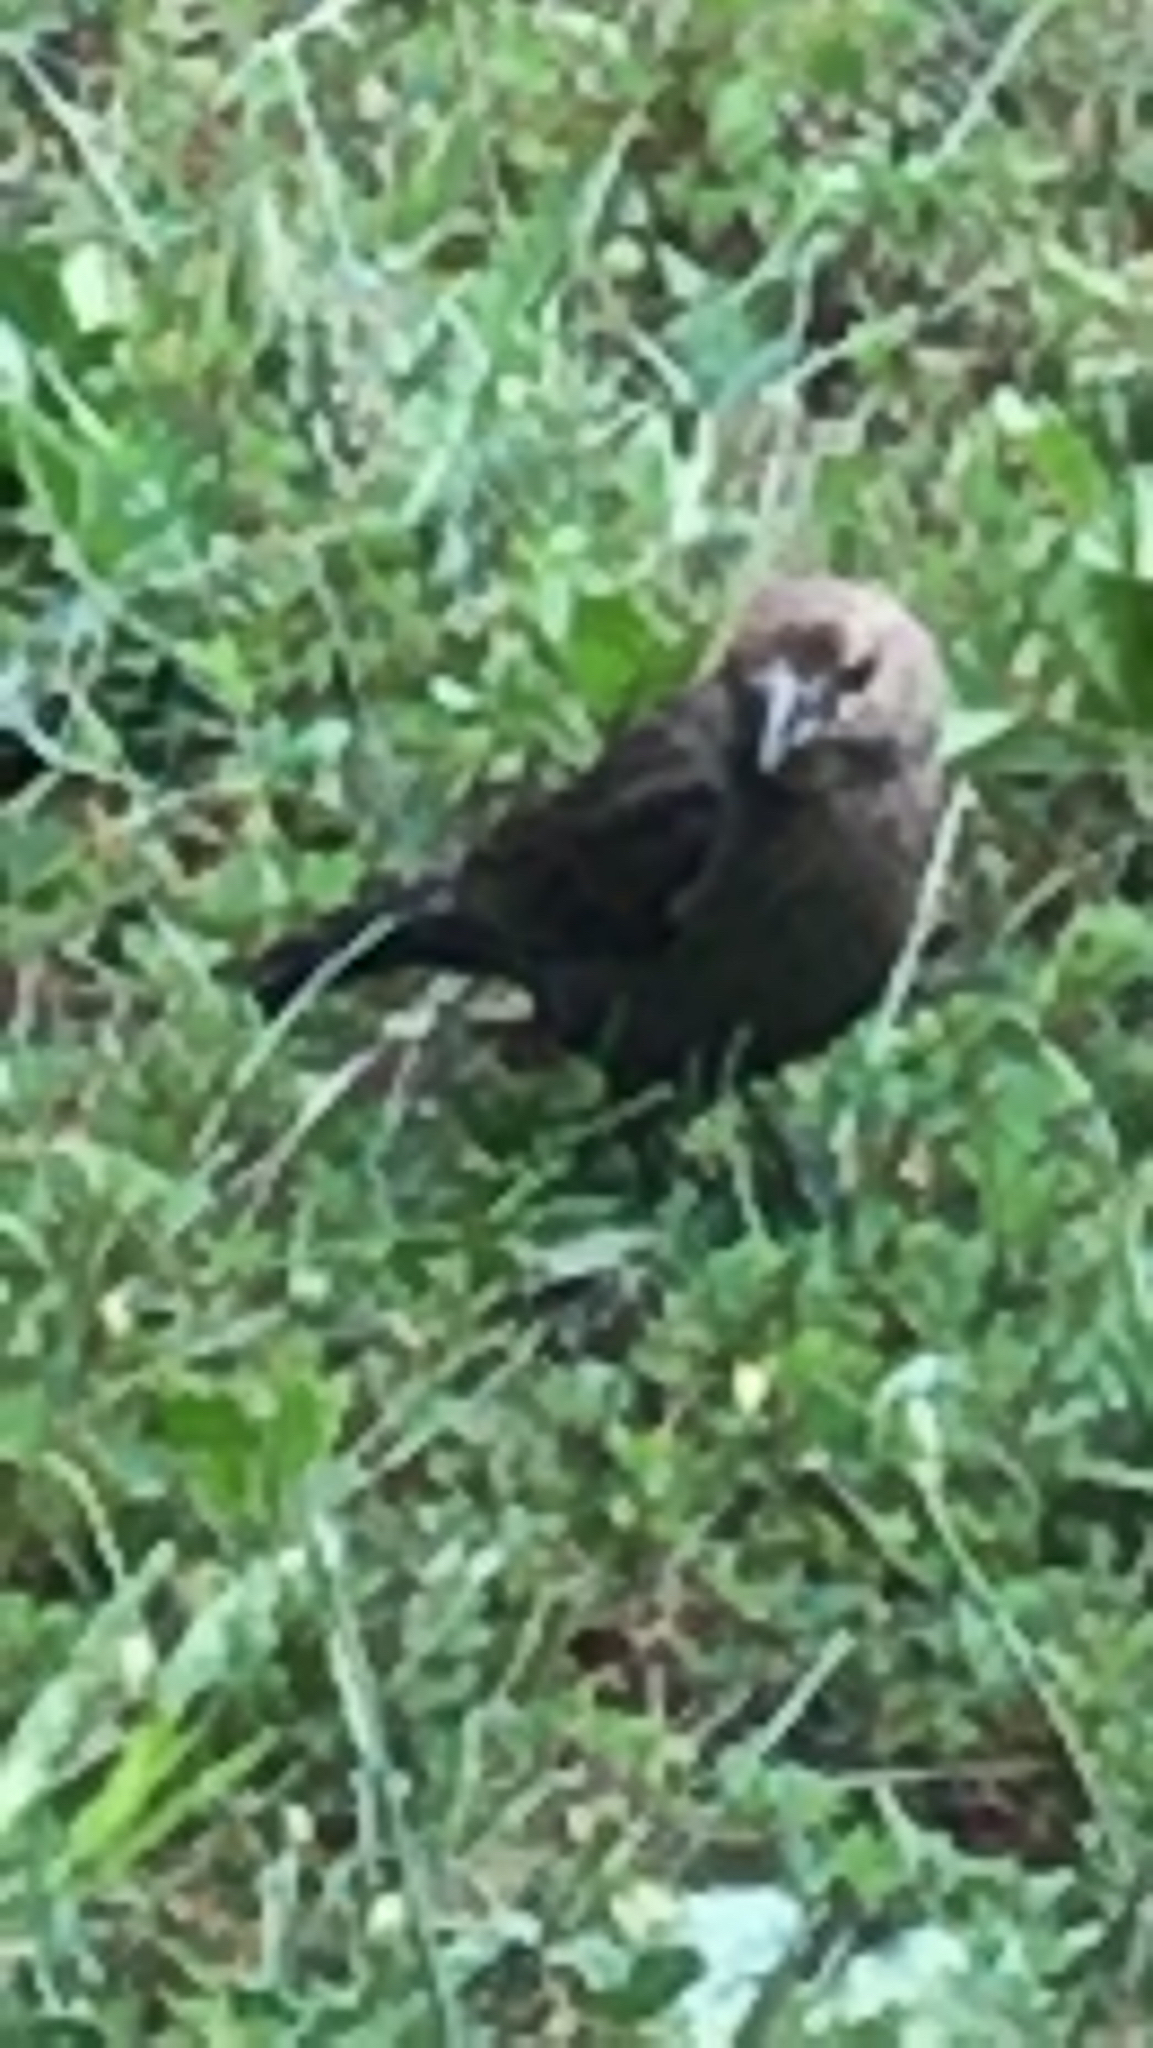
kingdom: Animalia
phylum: Chordata
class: Aves
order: Passeriformes
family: Icteridae
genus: Molothrus
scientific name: Molothrus ater
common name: Brown-headed cowbird
